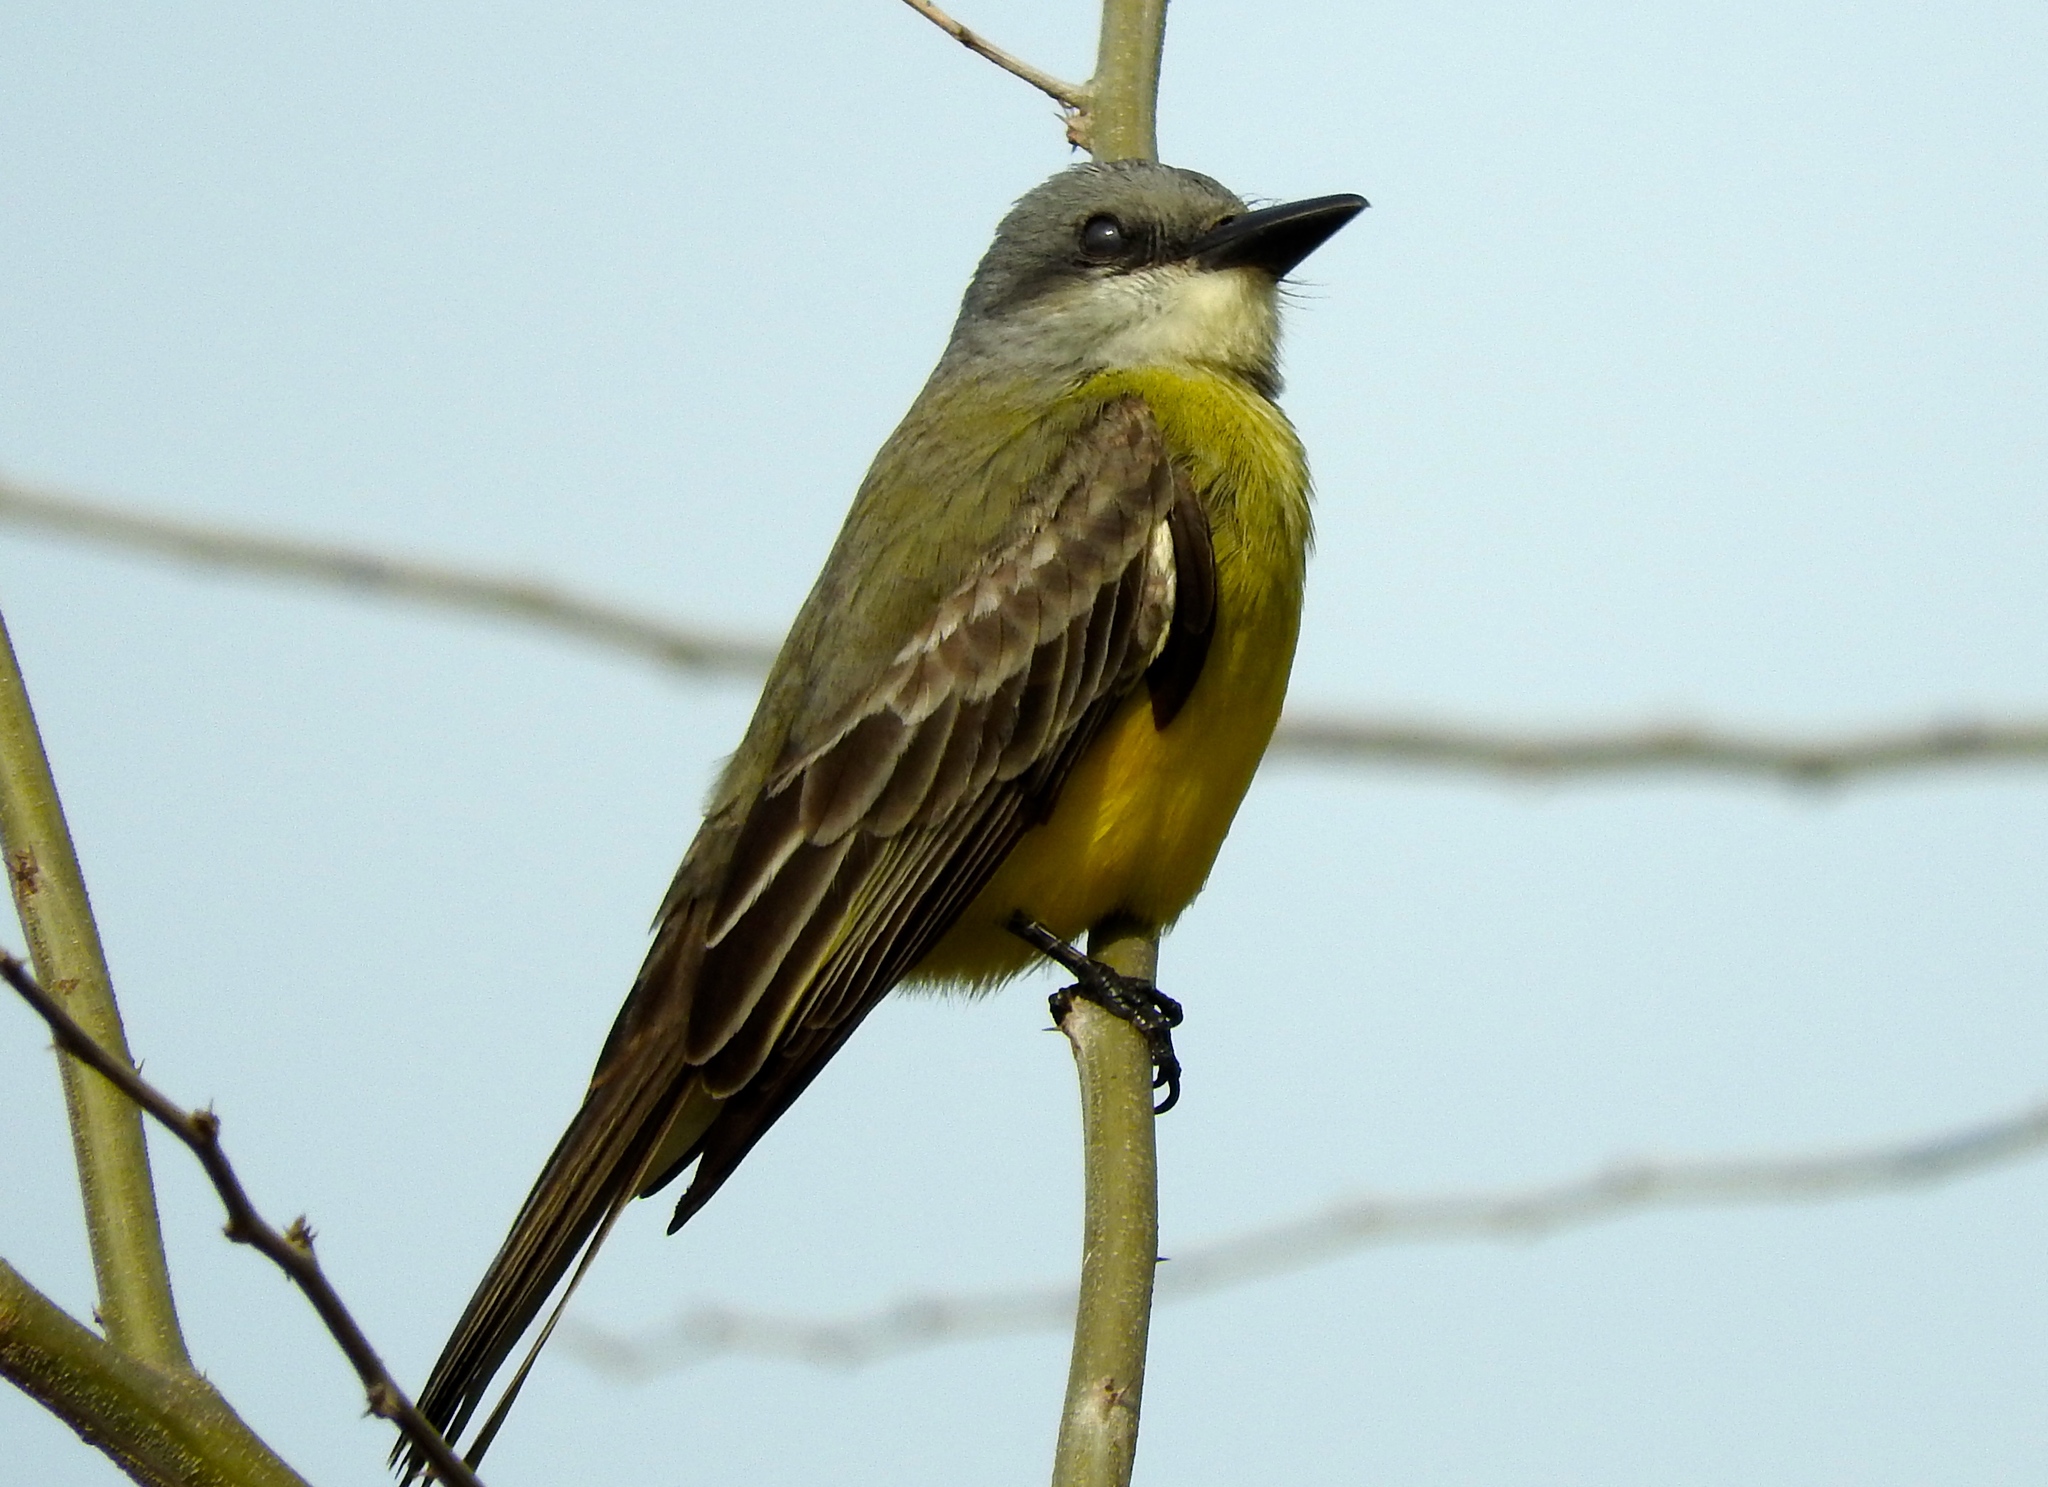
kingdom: Animalia
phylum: Chordata
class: Aves
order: Passeriformes
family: Tyrannidae
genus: Tyrannus
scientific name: Tyrannus melancholicus
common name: Tropical kingbird
